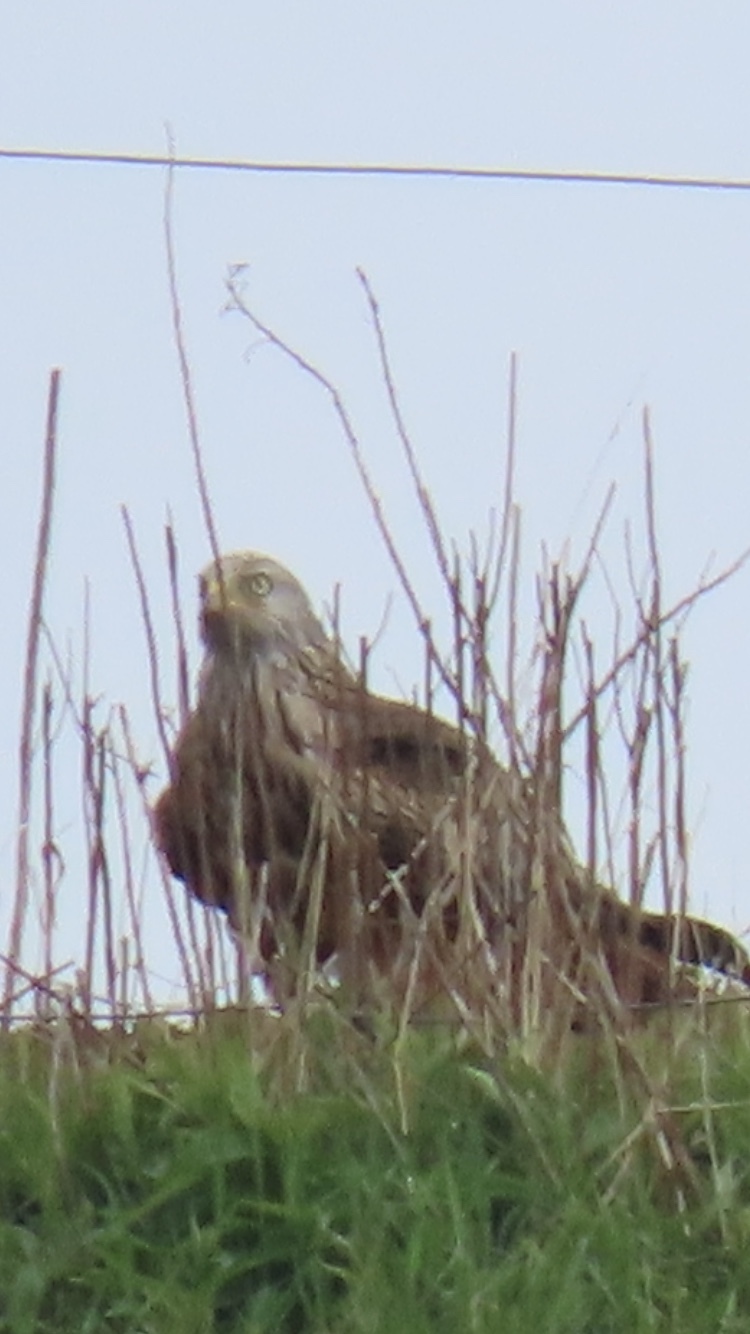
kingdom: Animalia
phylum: Chordata
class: Aves
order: Accipitriformes
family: Accipitridae
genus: Milvus
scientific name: Milvus milvus
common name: Red kite
